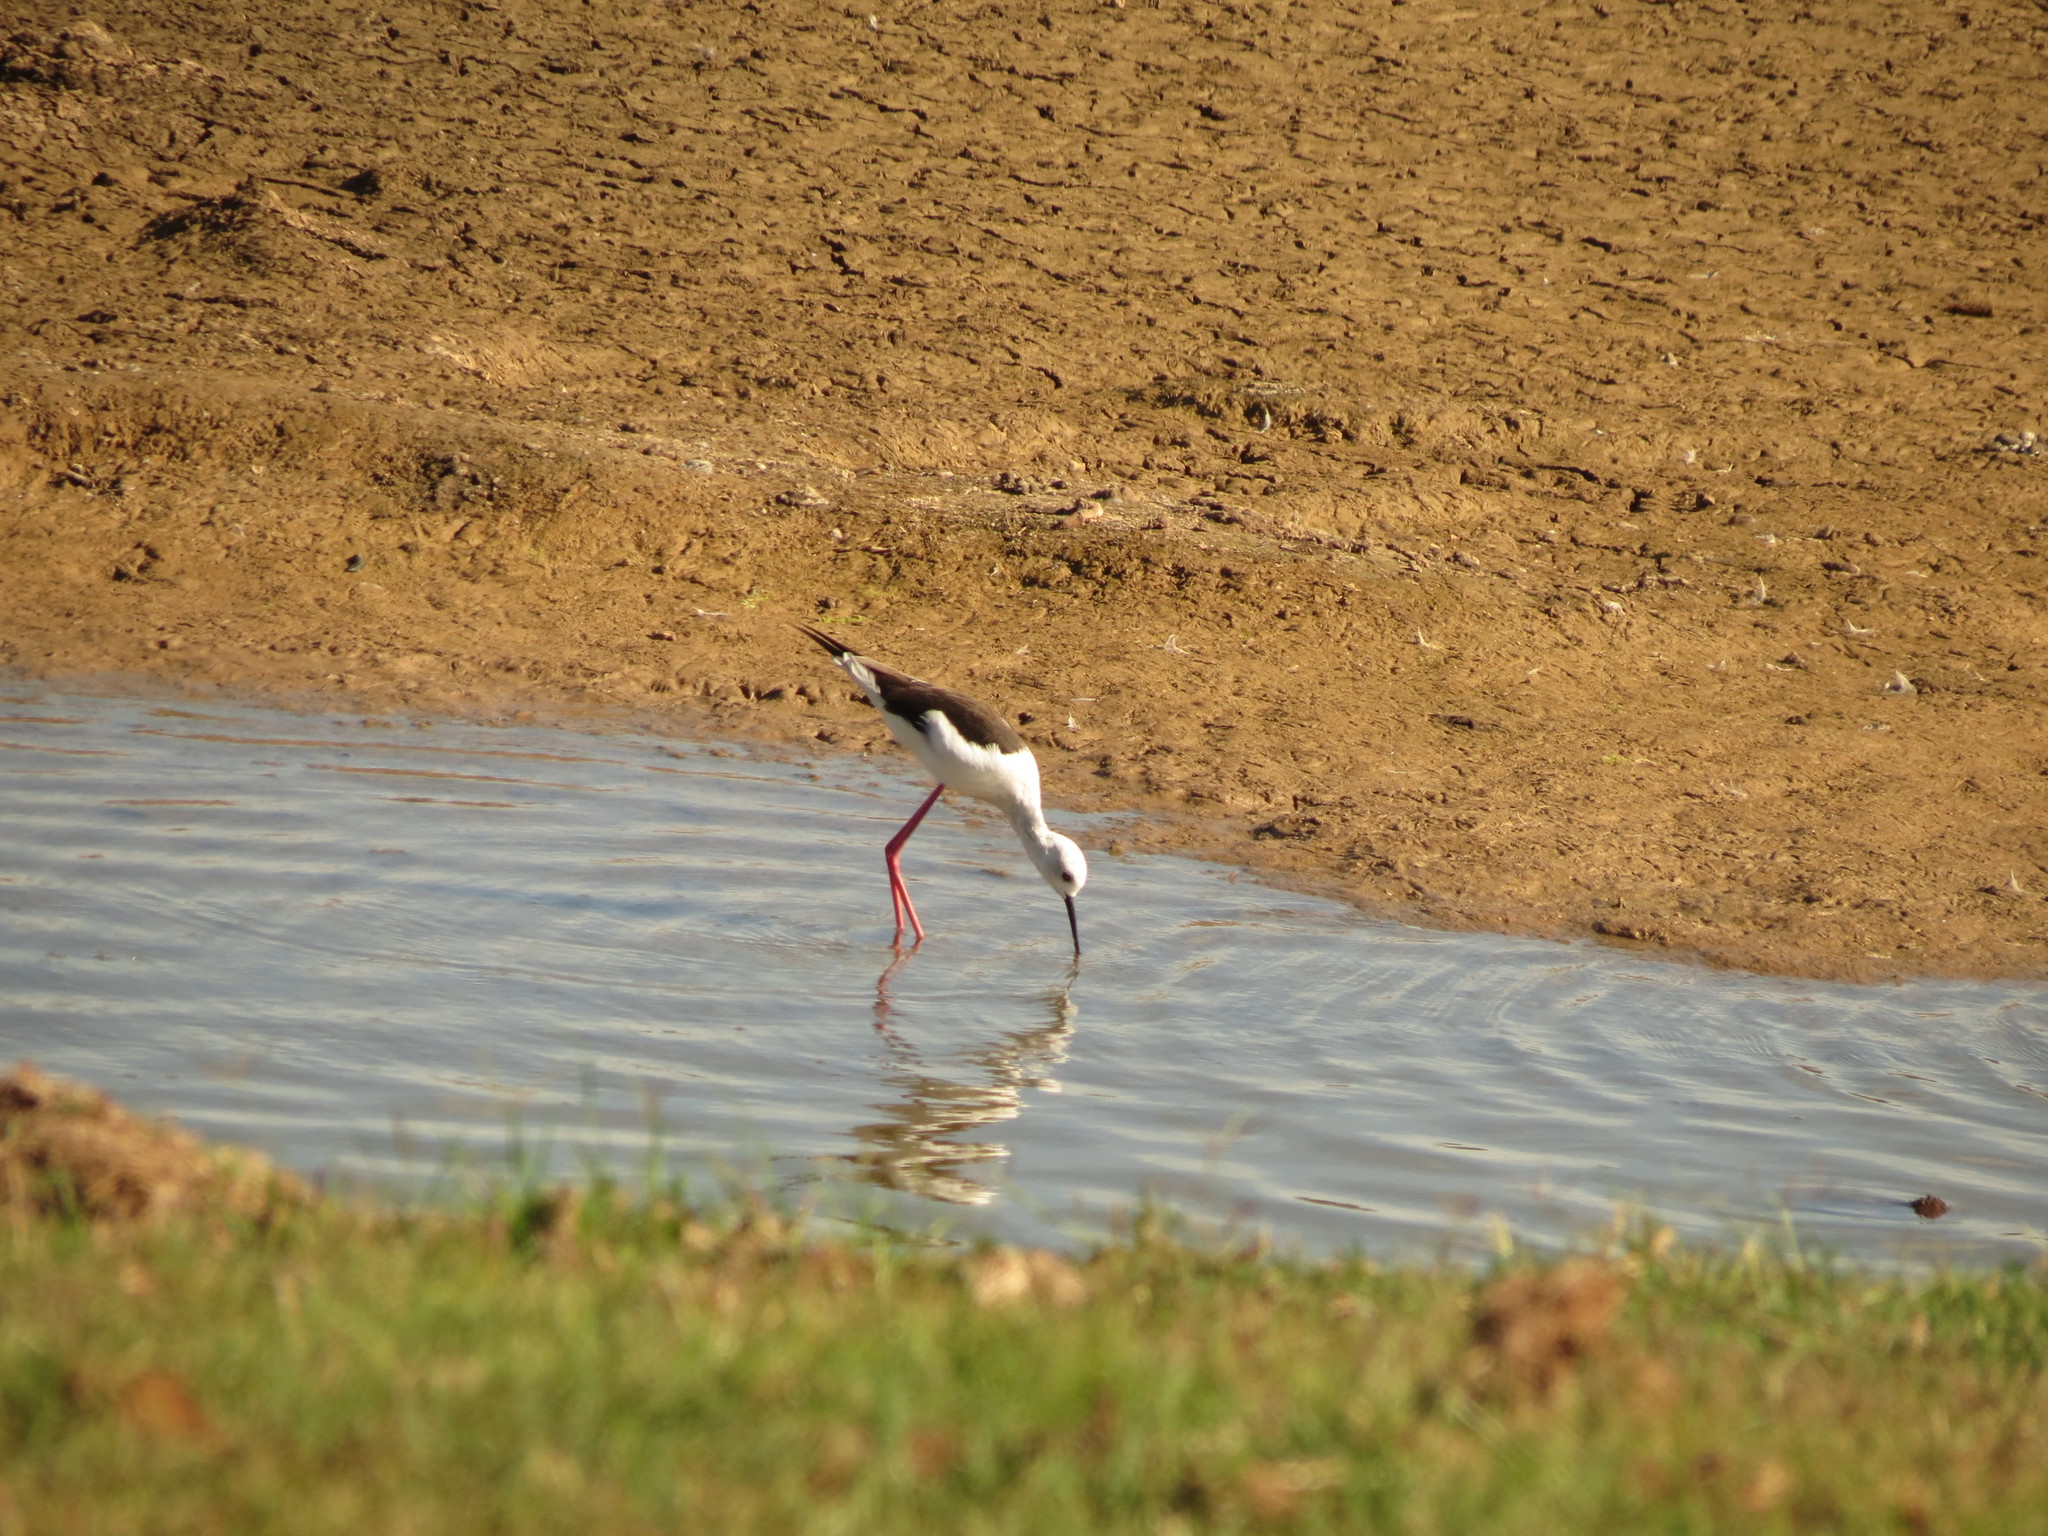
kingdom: Animalia
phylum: Chordata
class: Aves
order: Charadriiformes
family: Recurvirostridae
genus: Himantopus
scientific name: Himantopus himantopus
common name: Black-winged stilt
